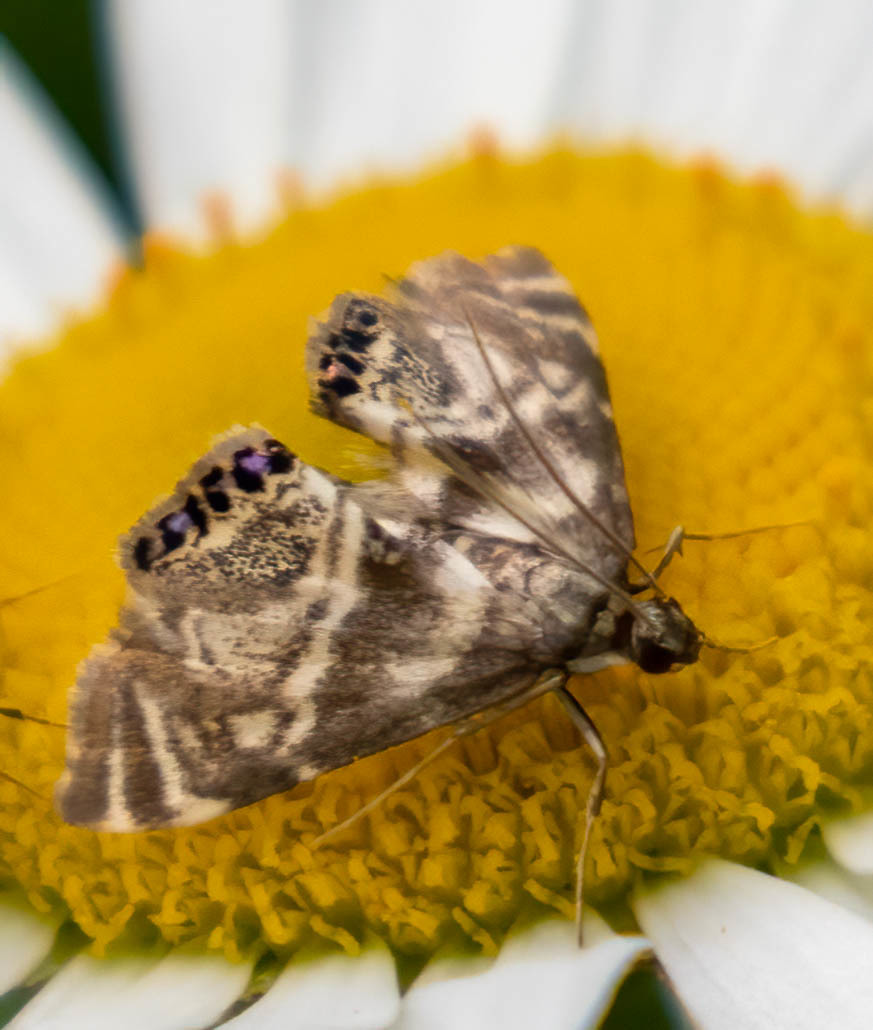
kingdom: Animalia
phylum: Arthropoda
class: Insecta
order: Lepidoptera
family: Crambidae
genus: Petrophila
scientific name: Petrophila canadensis
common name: Canadian petrophila
